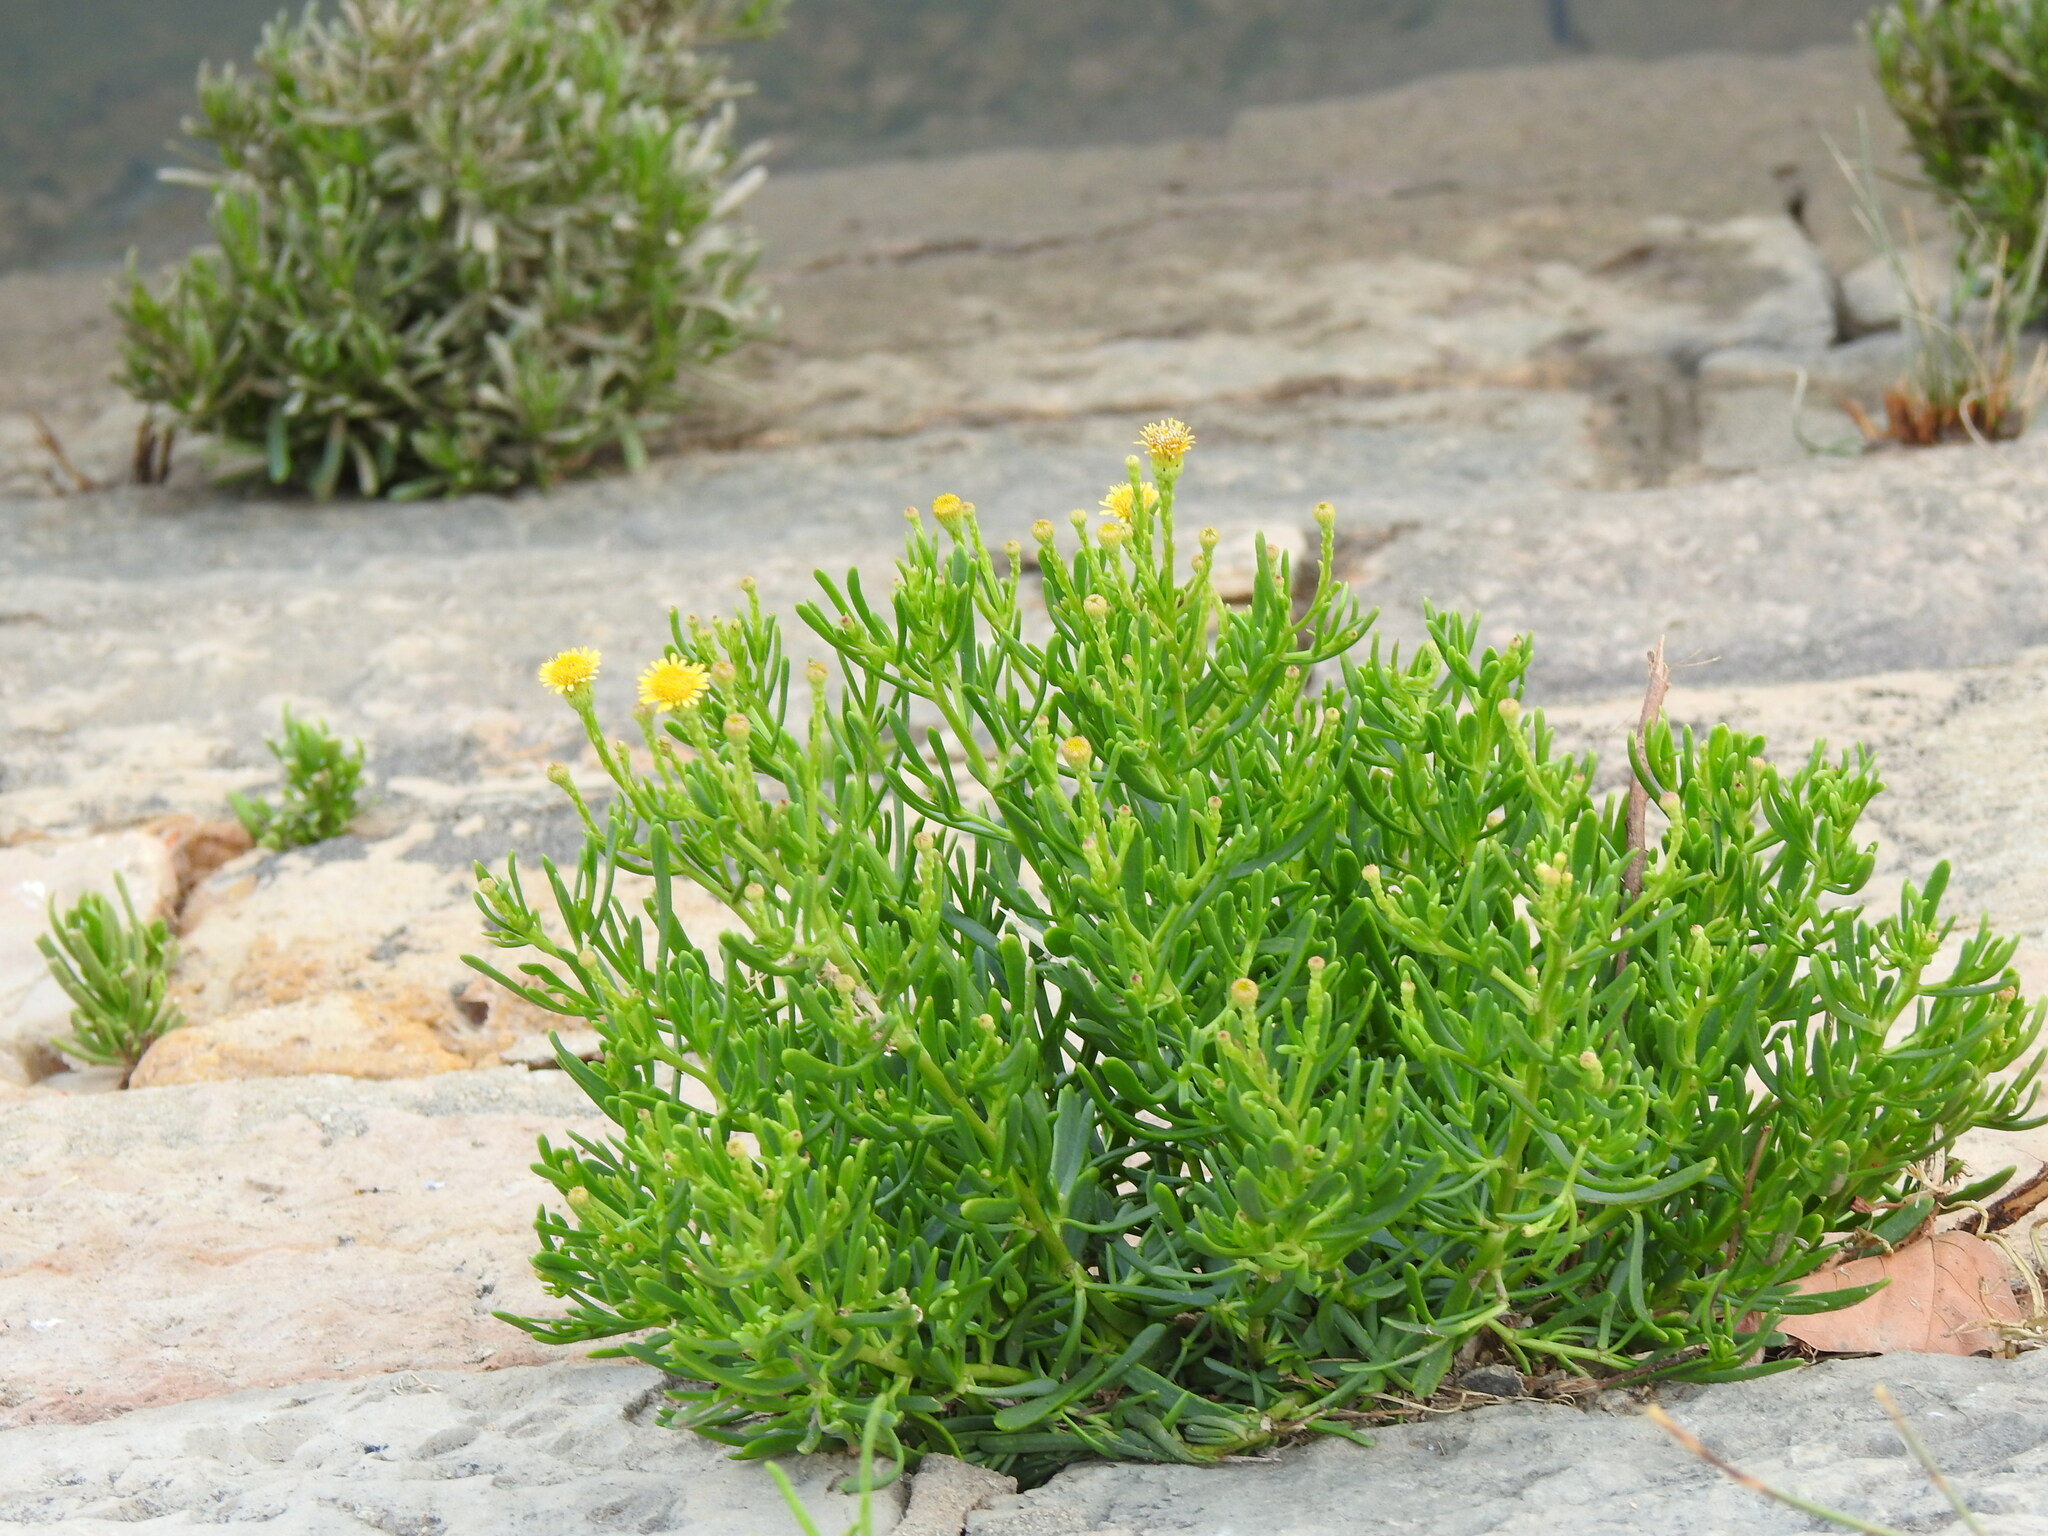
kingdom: Plantae
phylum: Tracheophyta
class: Magnoliopsida
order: Asterales
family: Asteraceae
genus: Limbarda
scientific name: Limbarda crithmoides
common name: Golden samphire
